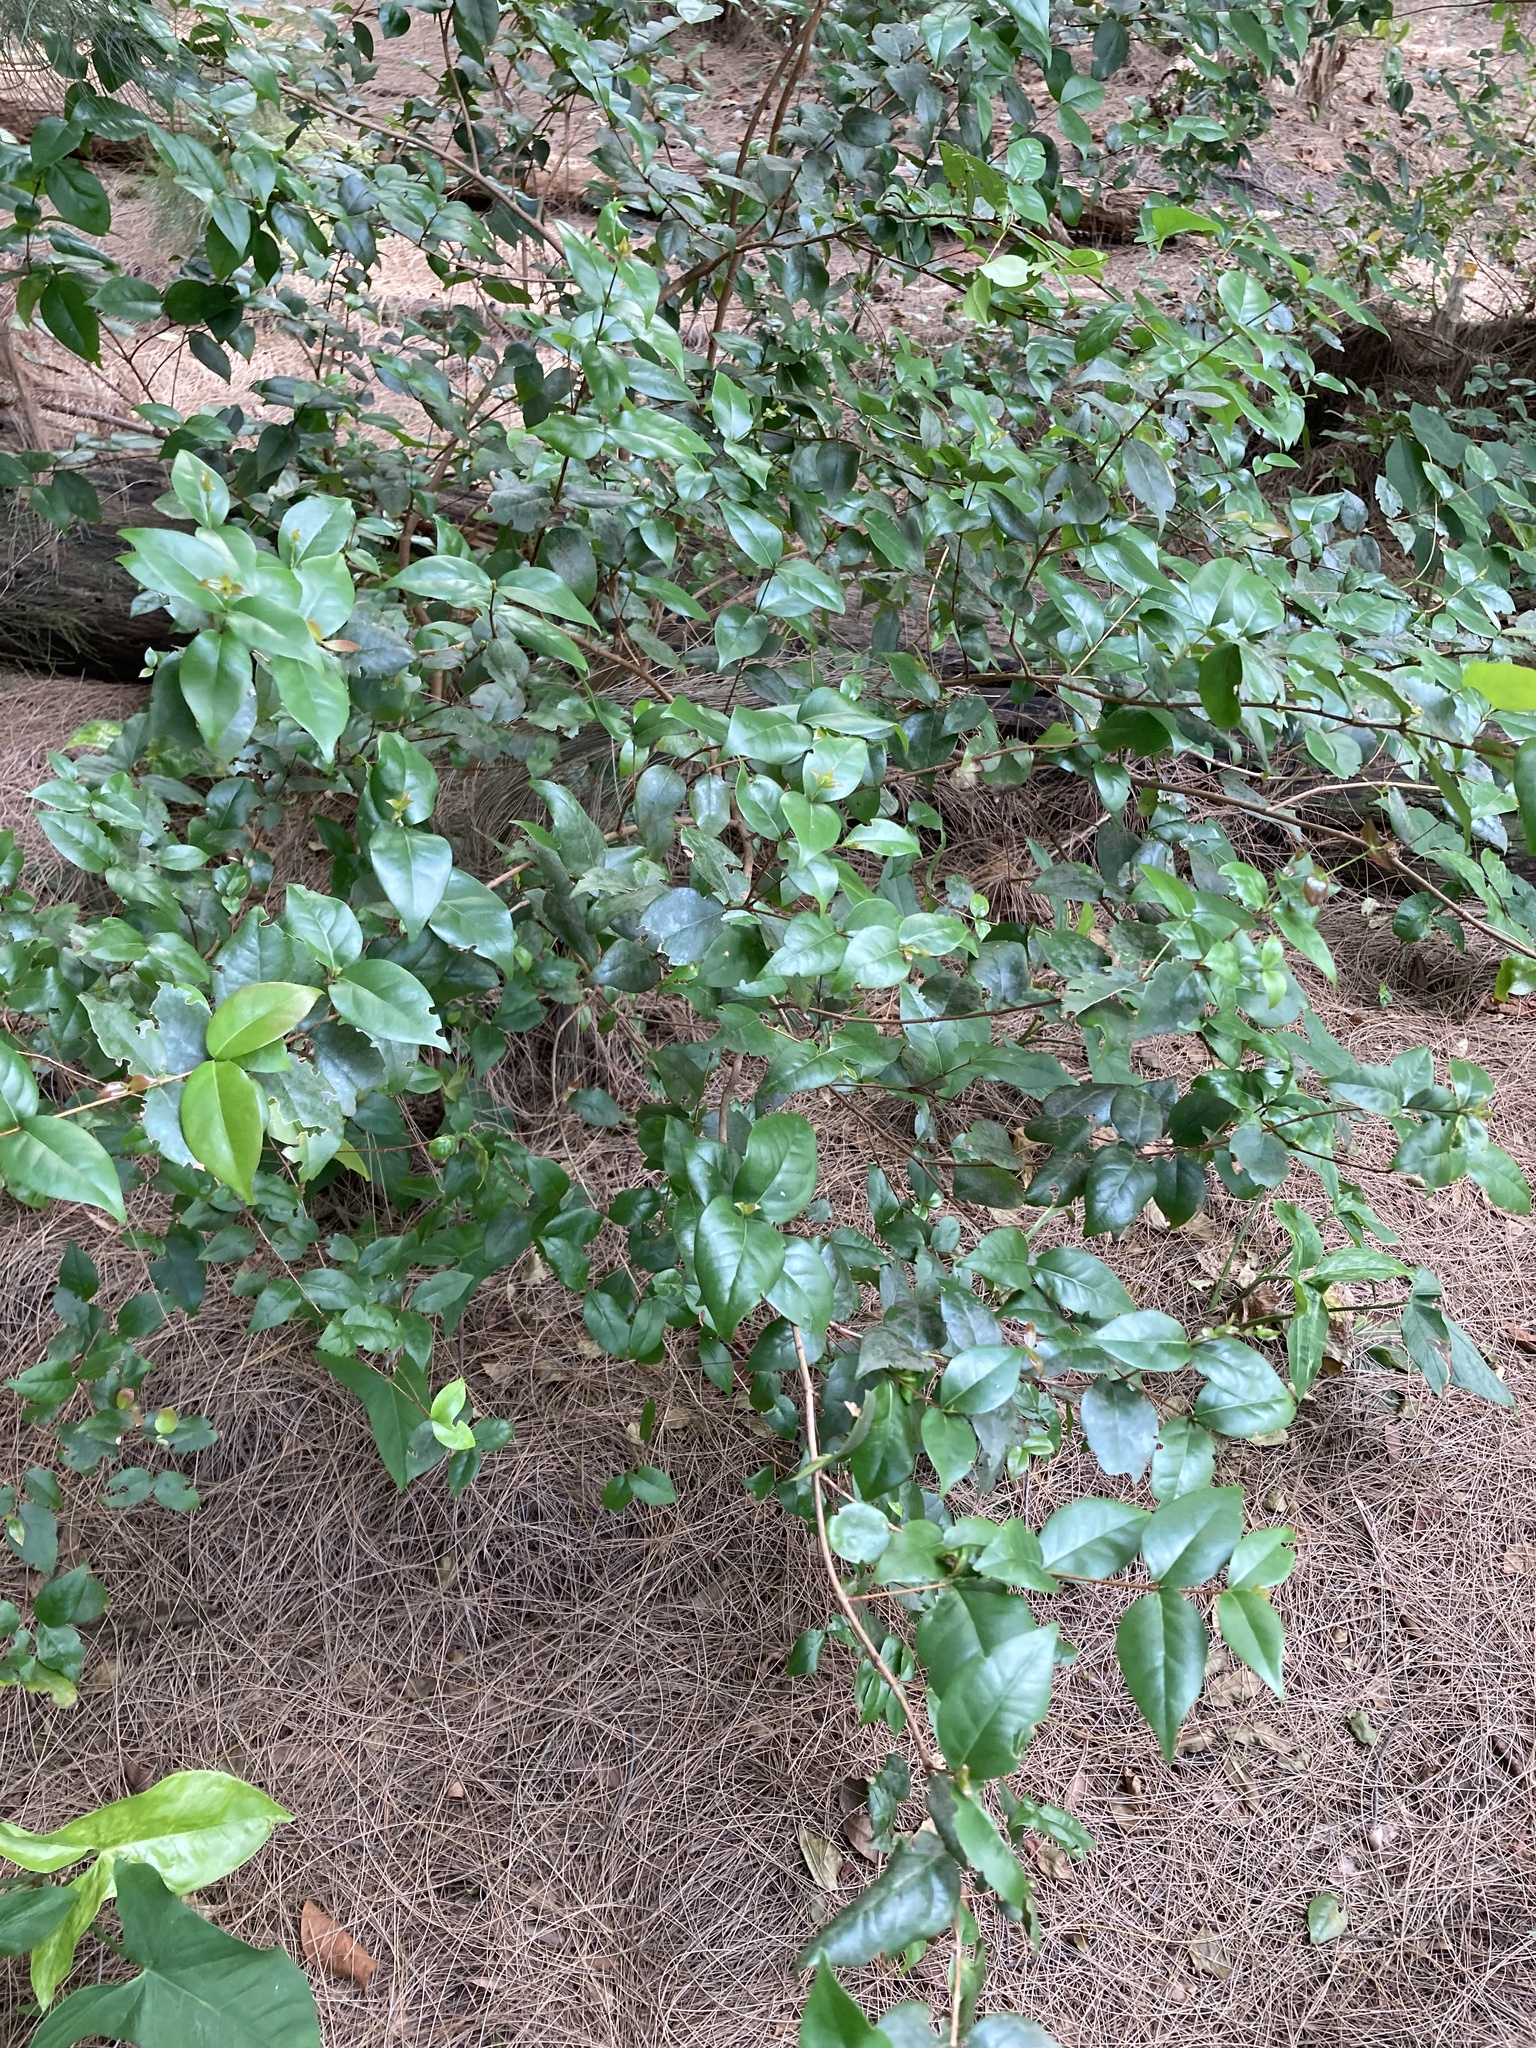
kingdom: Plantae
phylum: Tracheophyta
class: Magnoliopsida
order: Myrtales
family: Myrtaceae
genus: Eugenia
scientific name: Eugenia uniflora
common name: Surinam cherry
